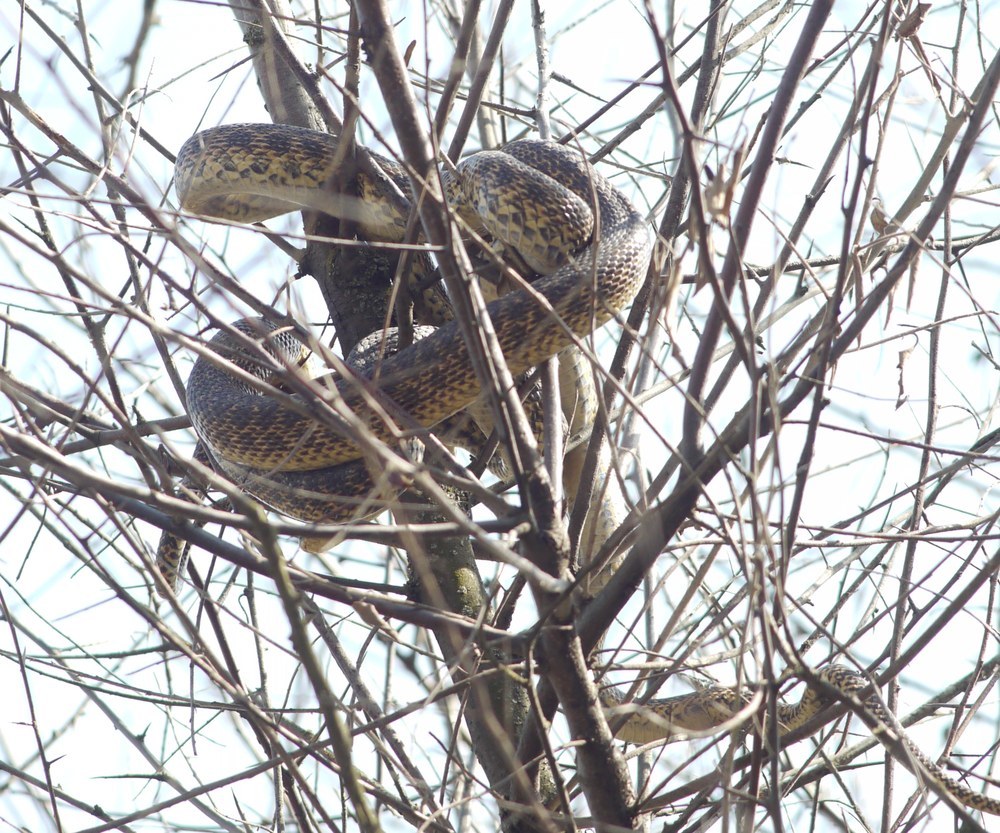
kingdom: Animalia
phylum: Chordata
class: Squamata
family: Colubridae
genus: Elaphe
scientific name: Elaphe sauromates
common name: Eastern four-lined ratsnake
